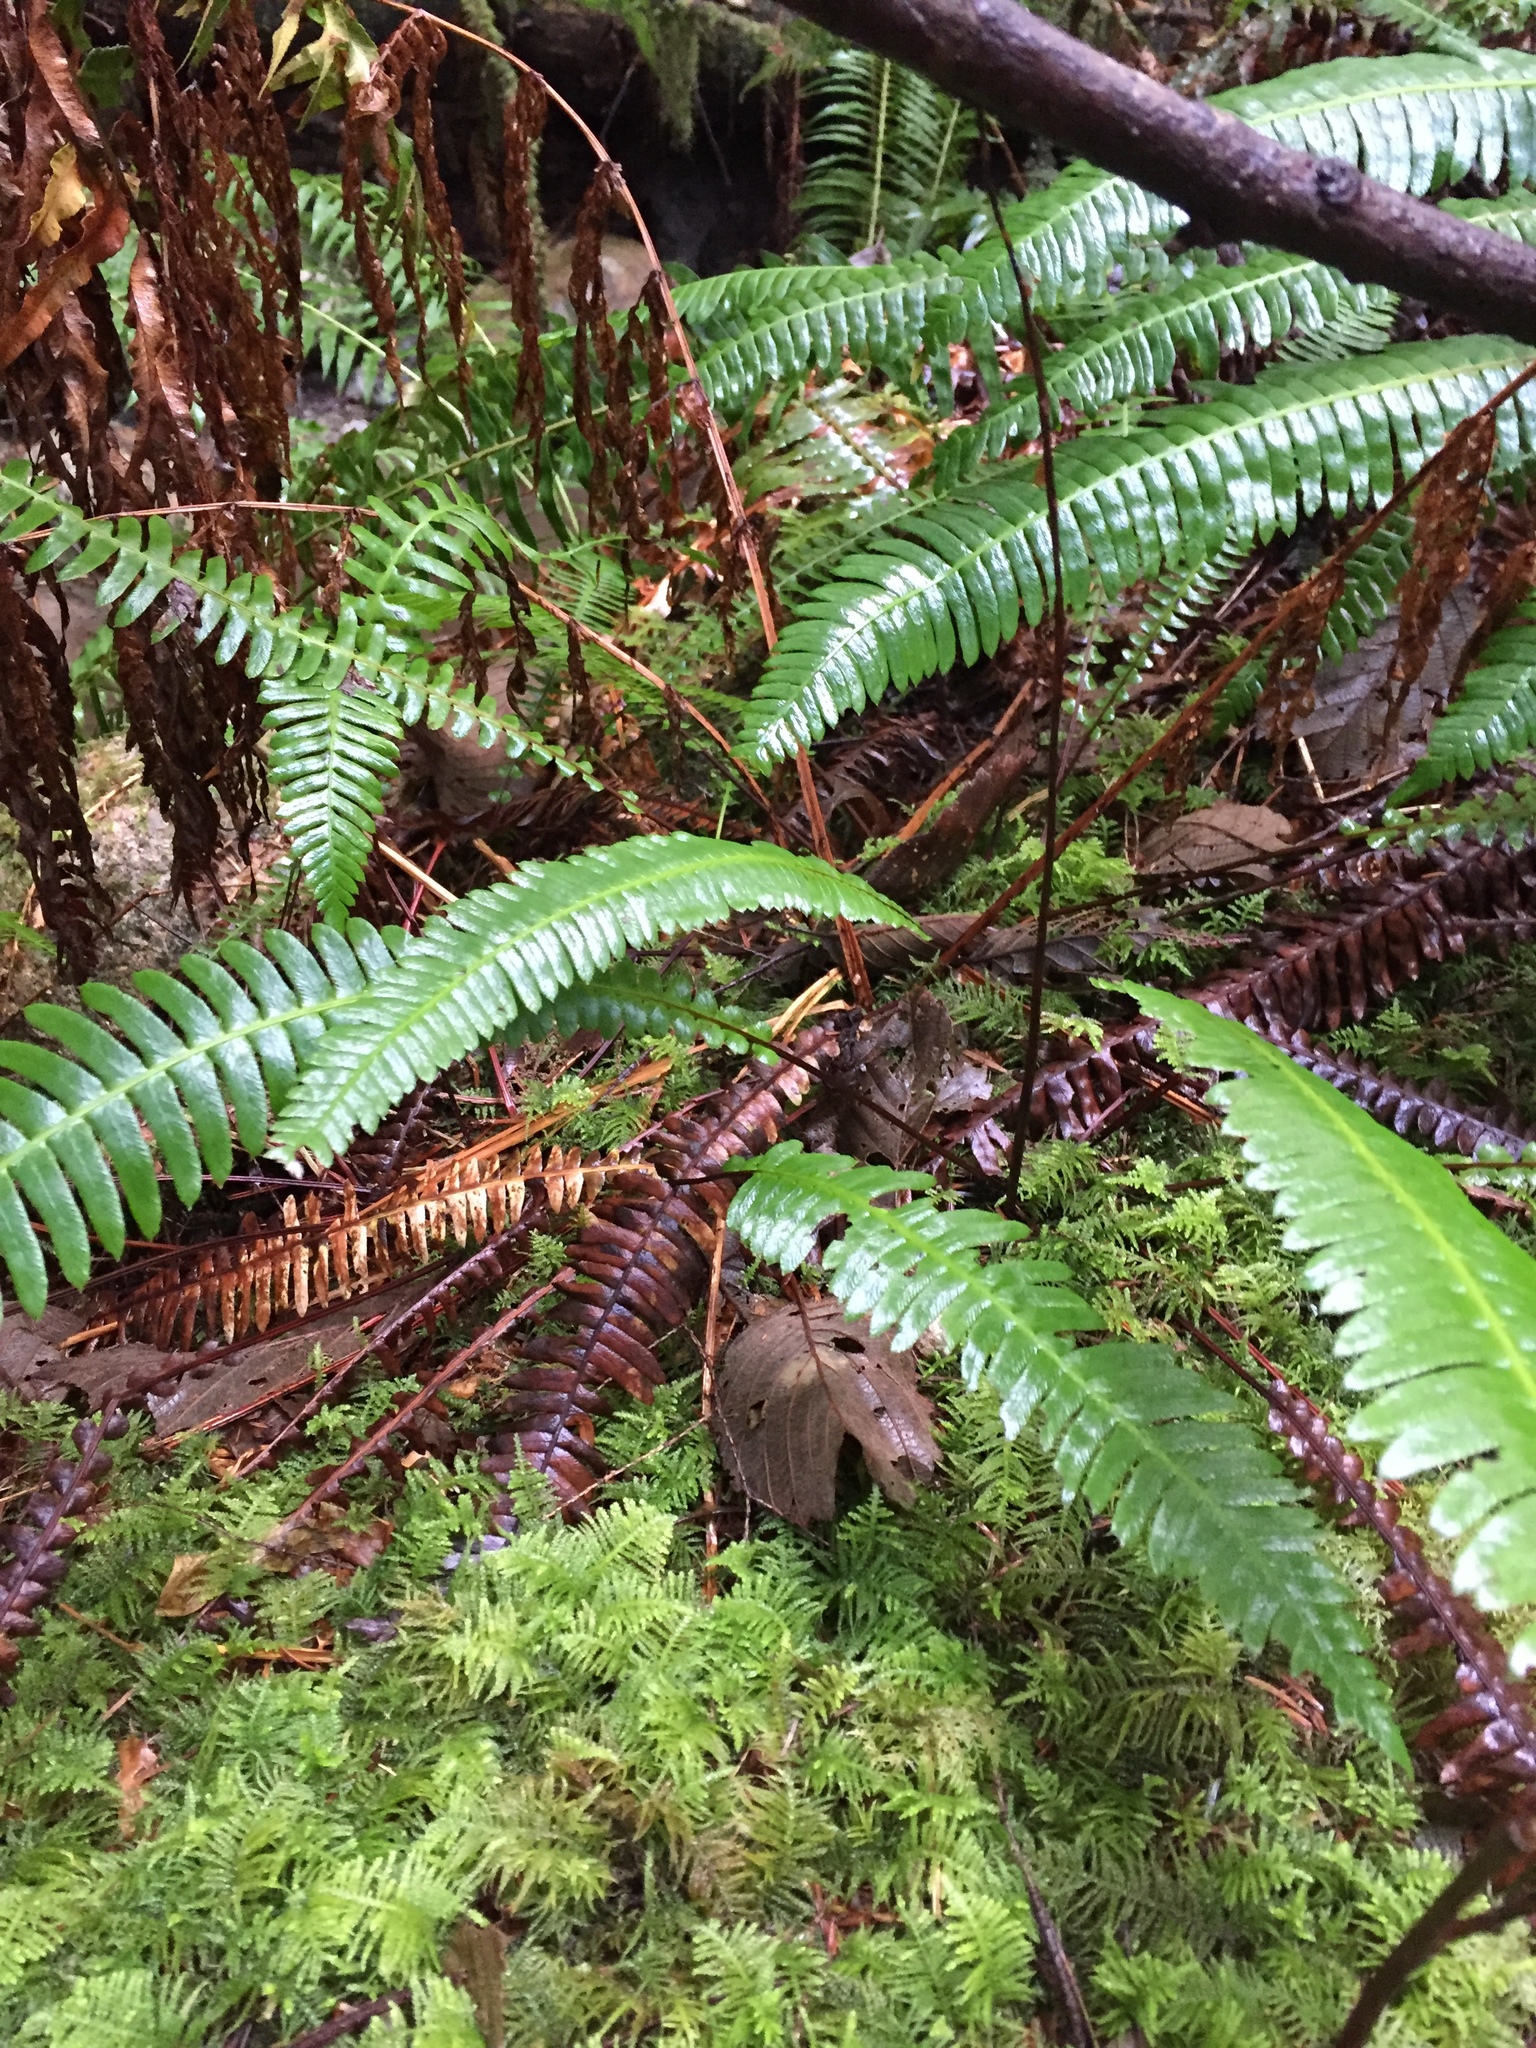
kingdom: Plantae
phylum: Tracheophyta
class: Polypodiopsida
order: Polypodiales
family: Blechnaceae
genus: Struthiopteris
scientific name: Struthiopteris spicant
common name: Deer fern
